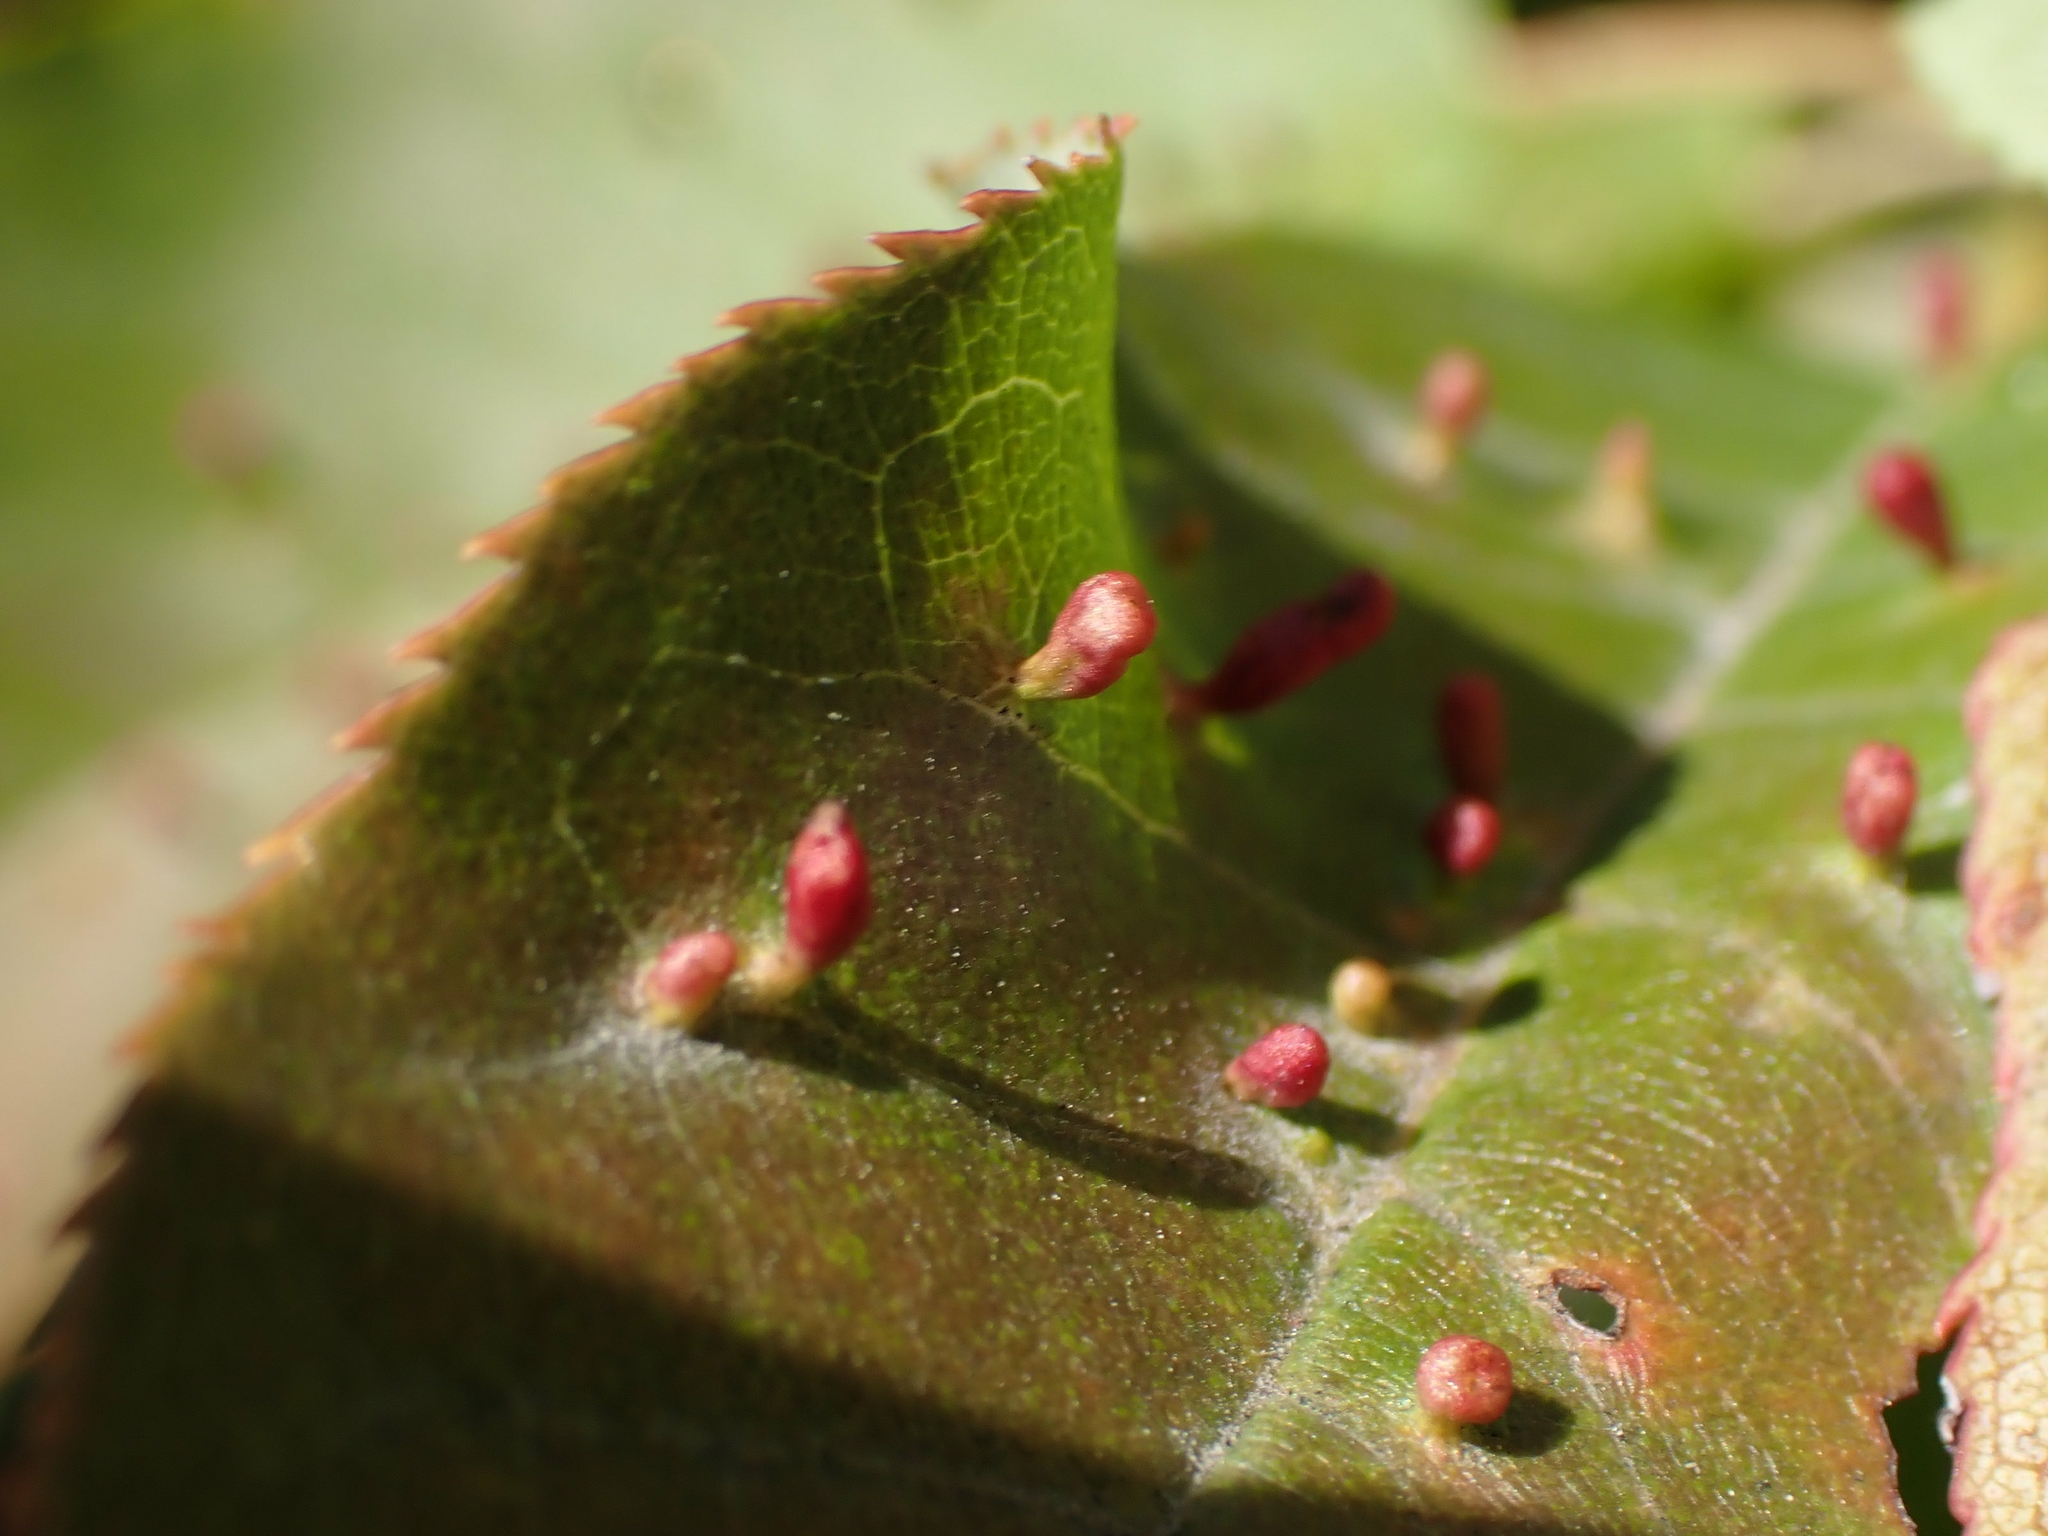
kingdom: Animalia
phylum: Arthropoda
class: Arachnida
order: Trombidiformes
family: Eriophyidae
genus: Eriophyes
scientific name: Eriophyes emarginatae
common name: Plum leaf gall mite
